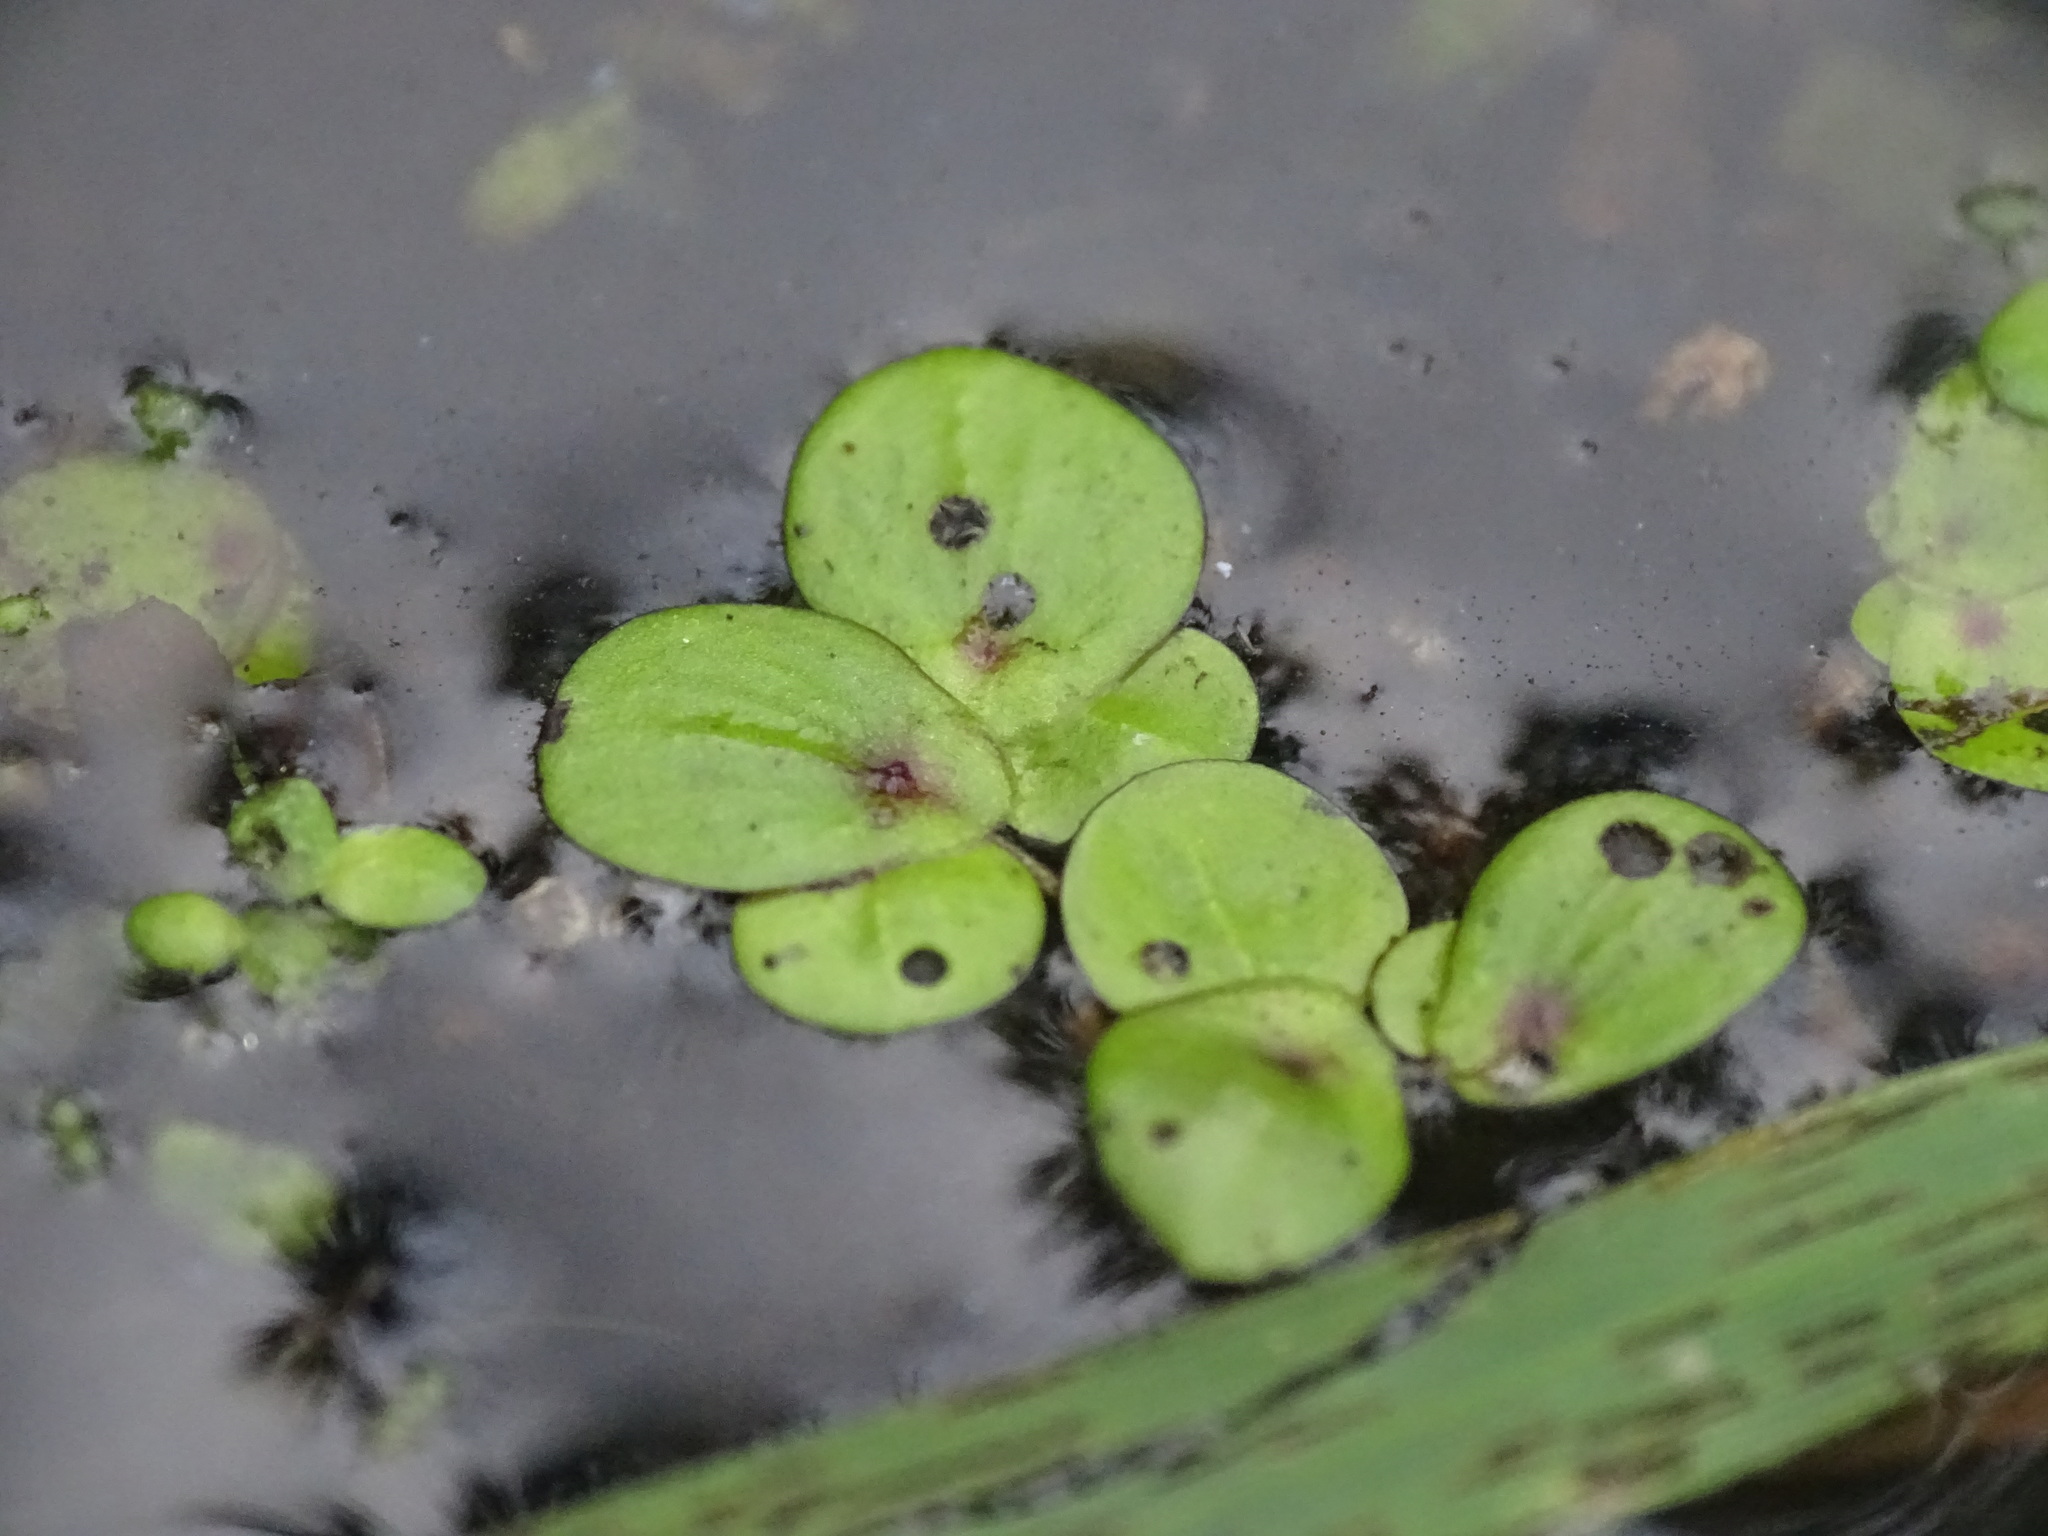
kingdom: Plantae
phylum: Tracheophyta
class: Liliopsida
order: Alismatales
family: Araceae
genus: Spirodela
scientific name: Spirodela polyrhiza
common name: Great duckweed
